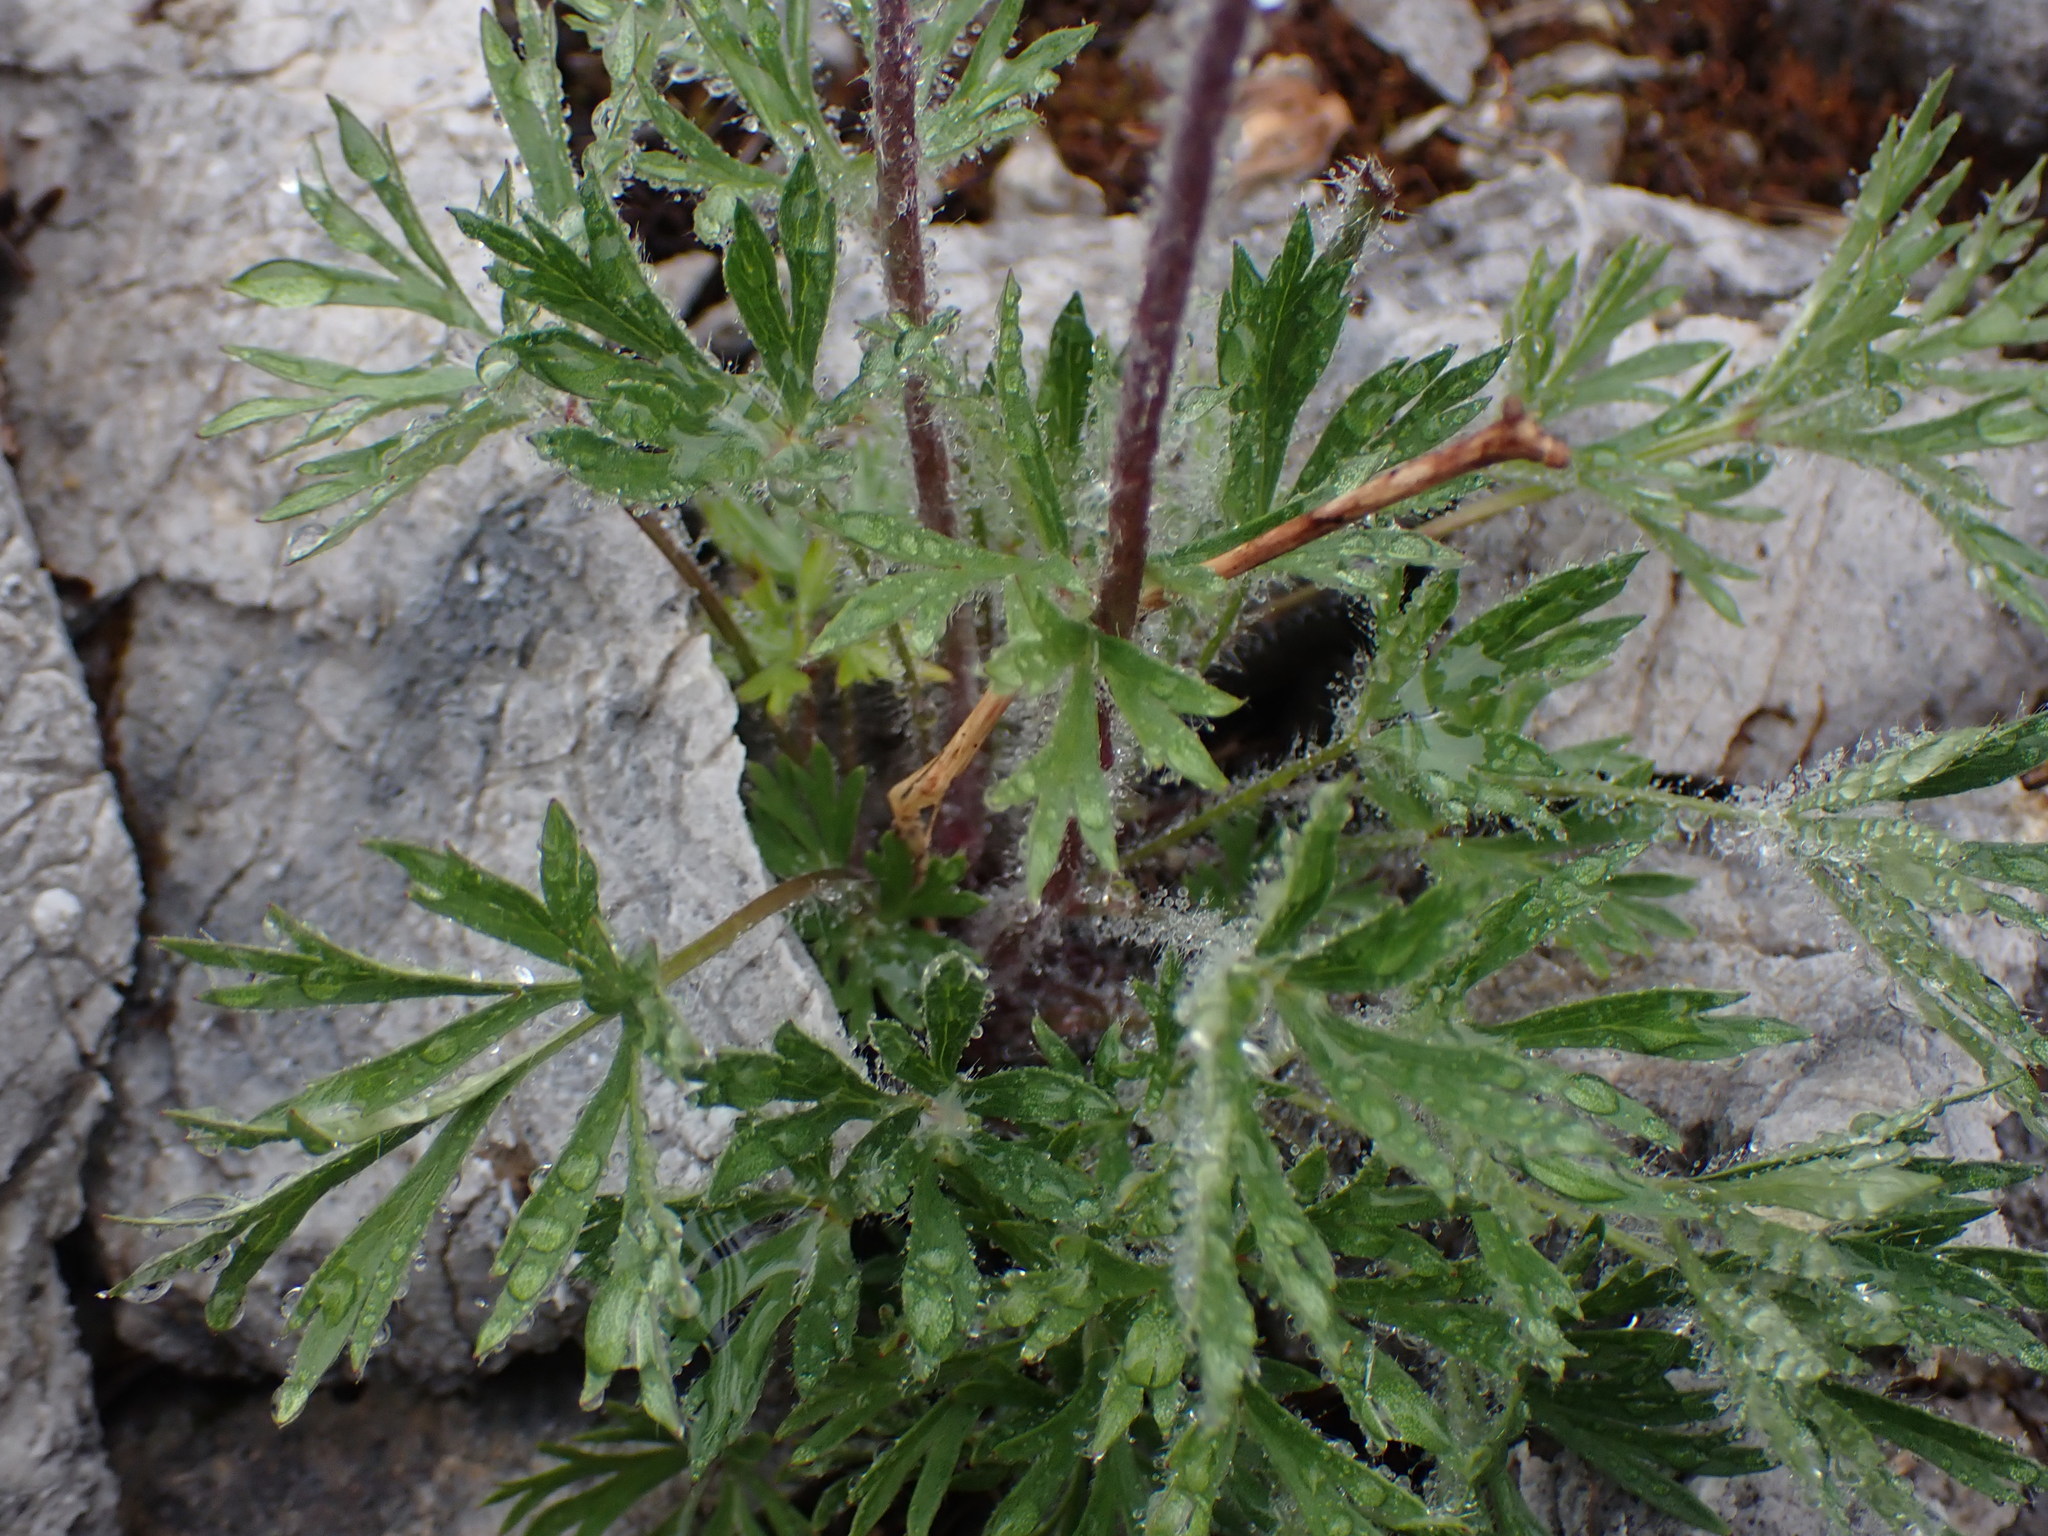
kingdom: Plantae
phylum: Tracheophyta
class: Magnoliopsida
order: Ranunculales
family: Ranunculaceae
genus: Anemone
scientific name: Anemone multifida
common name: Bird's-foot anemone
